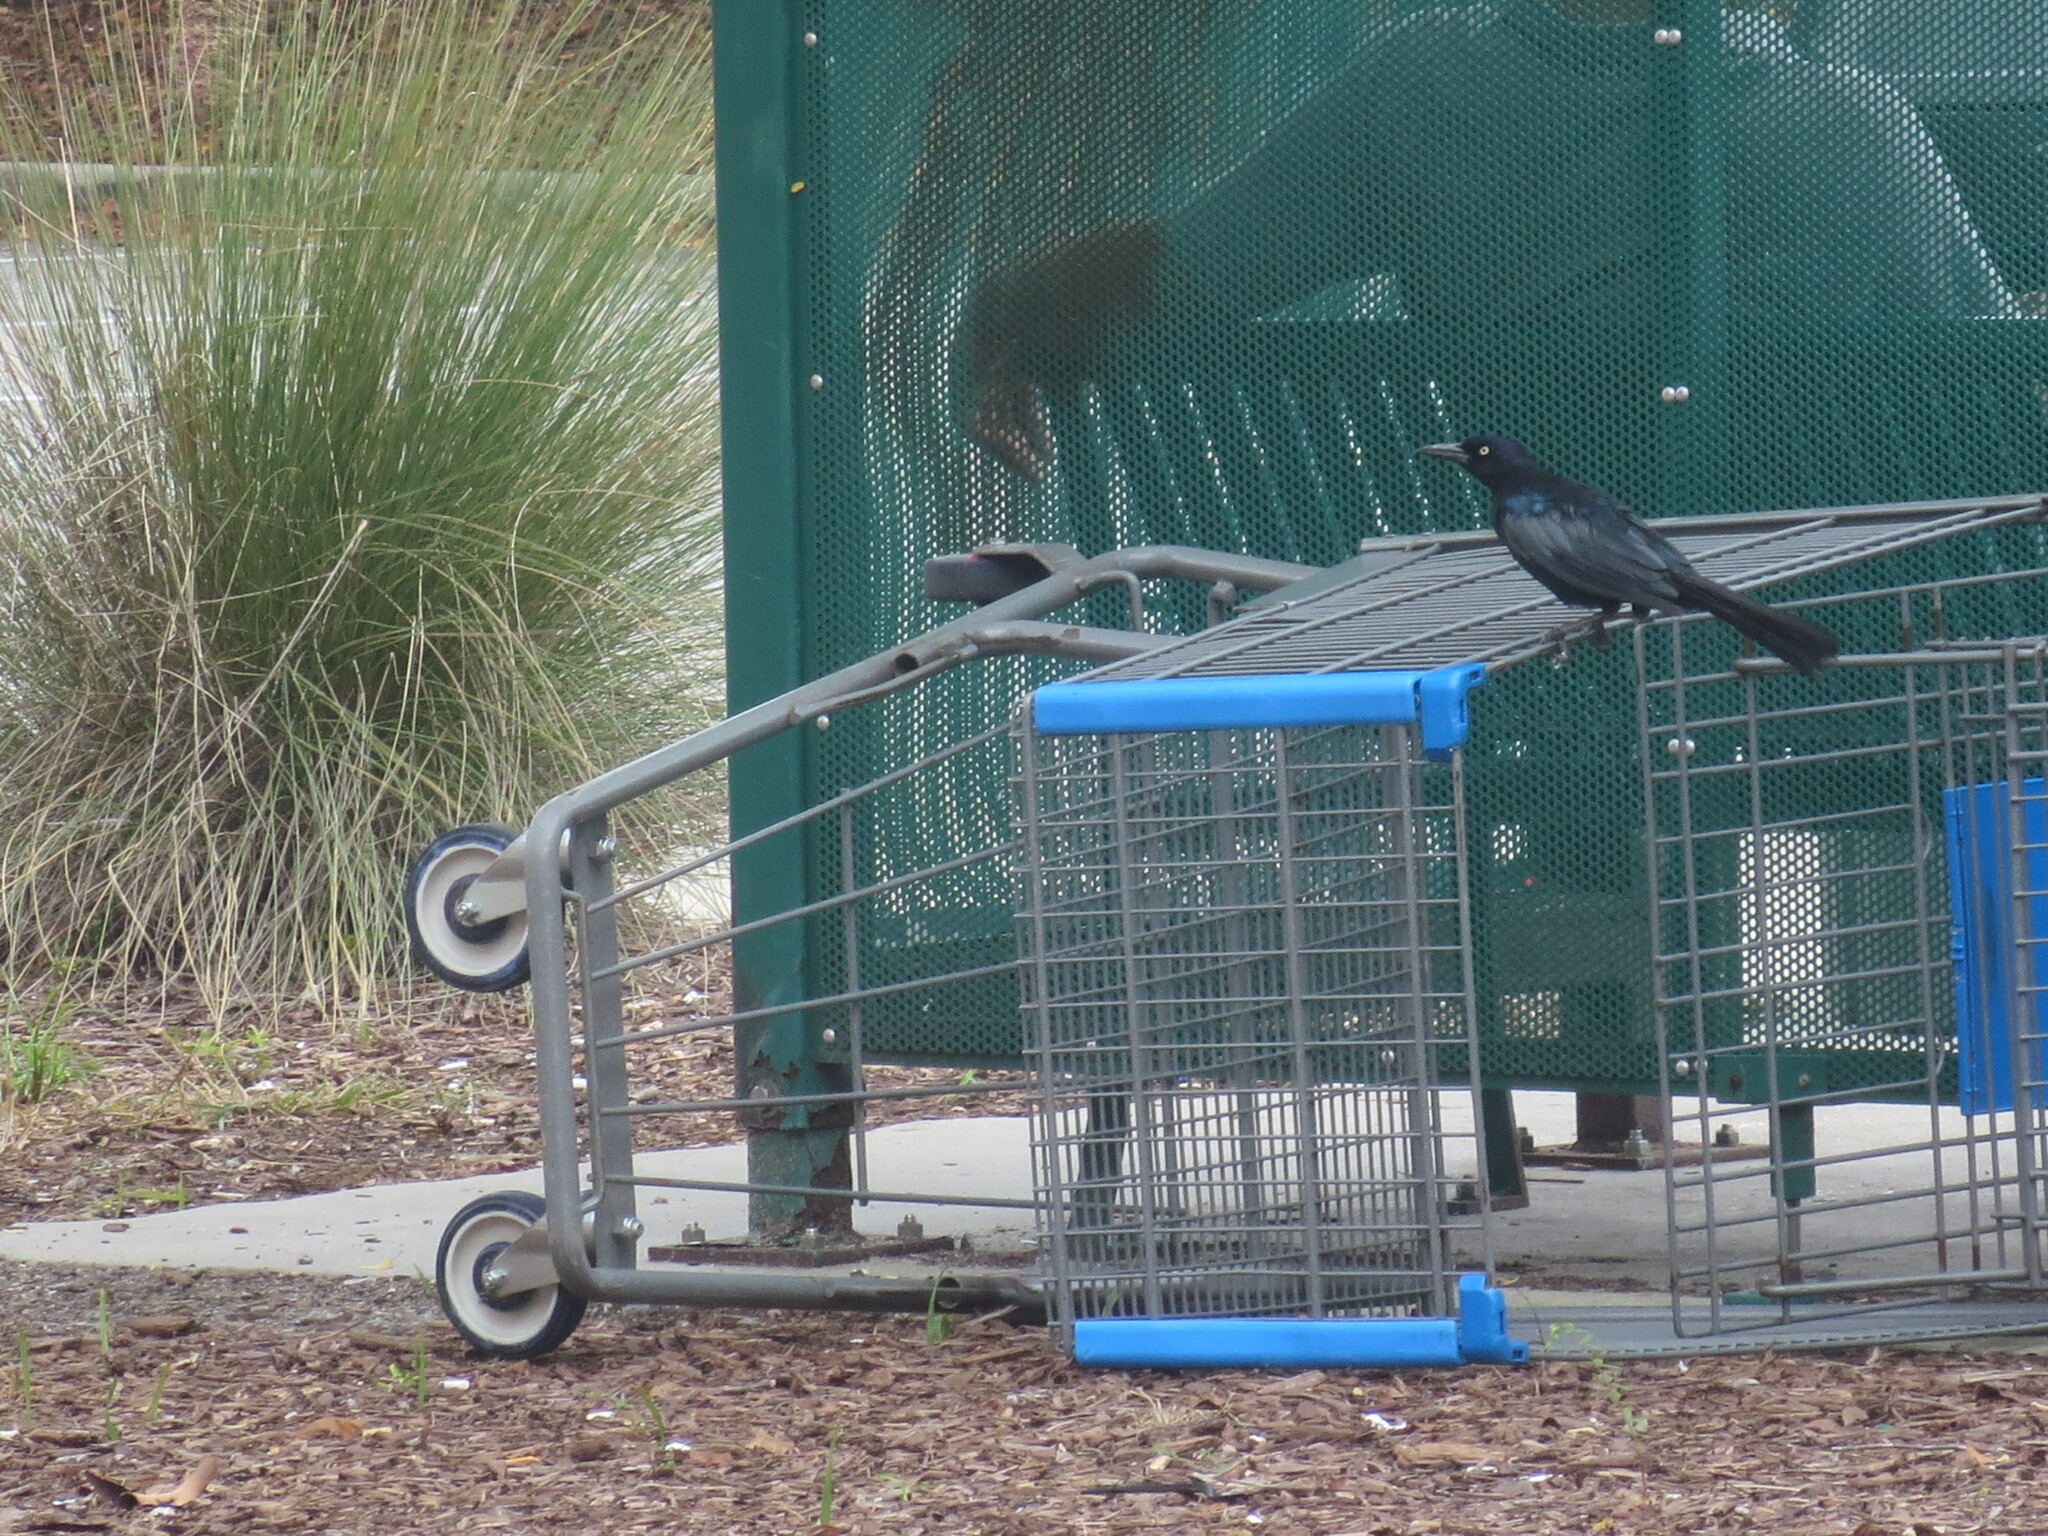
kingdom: Animalia
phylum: Chordata
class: Aves
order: Passeriformes
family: Icteridae
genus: Quiscalus
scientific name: Quiscalus major
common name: Boat-tailed grackle
